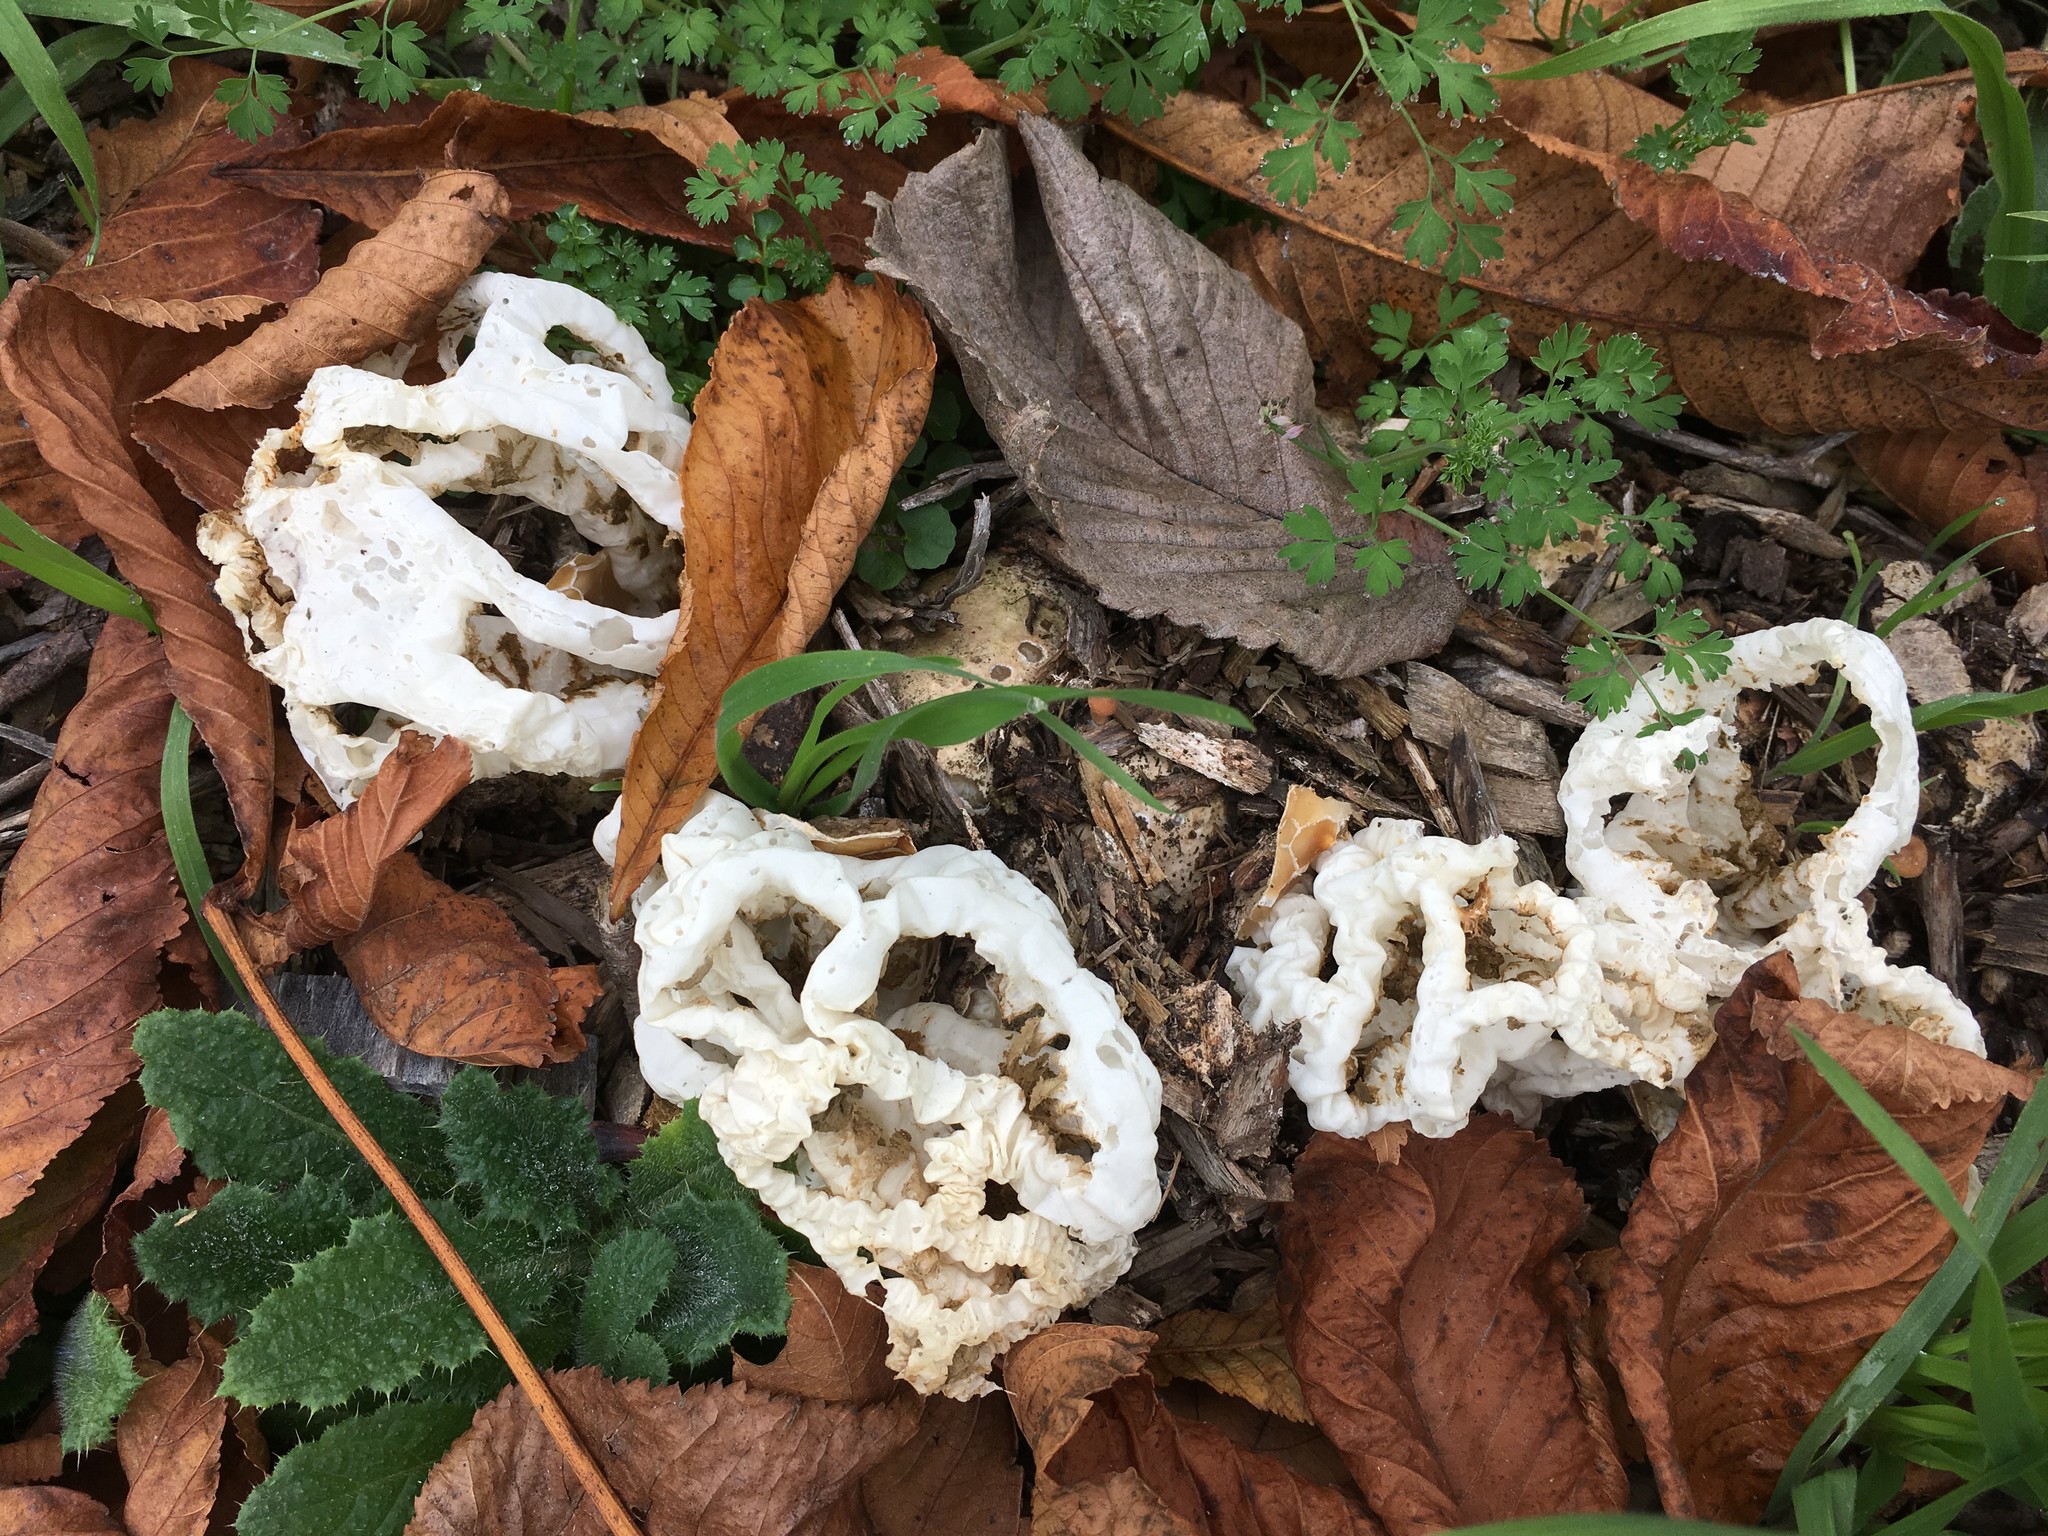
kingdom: Fungi
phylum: Basidiomycota
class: Agaricomycetes
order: Phallales
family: Phallaceae
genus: Ileodictyon
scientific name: Ileodictyon cibarium
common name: Basket fungus
